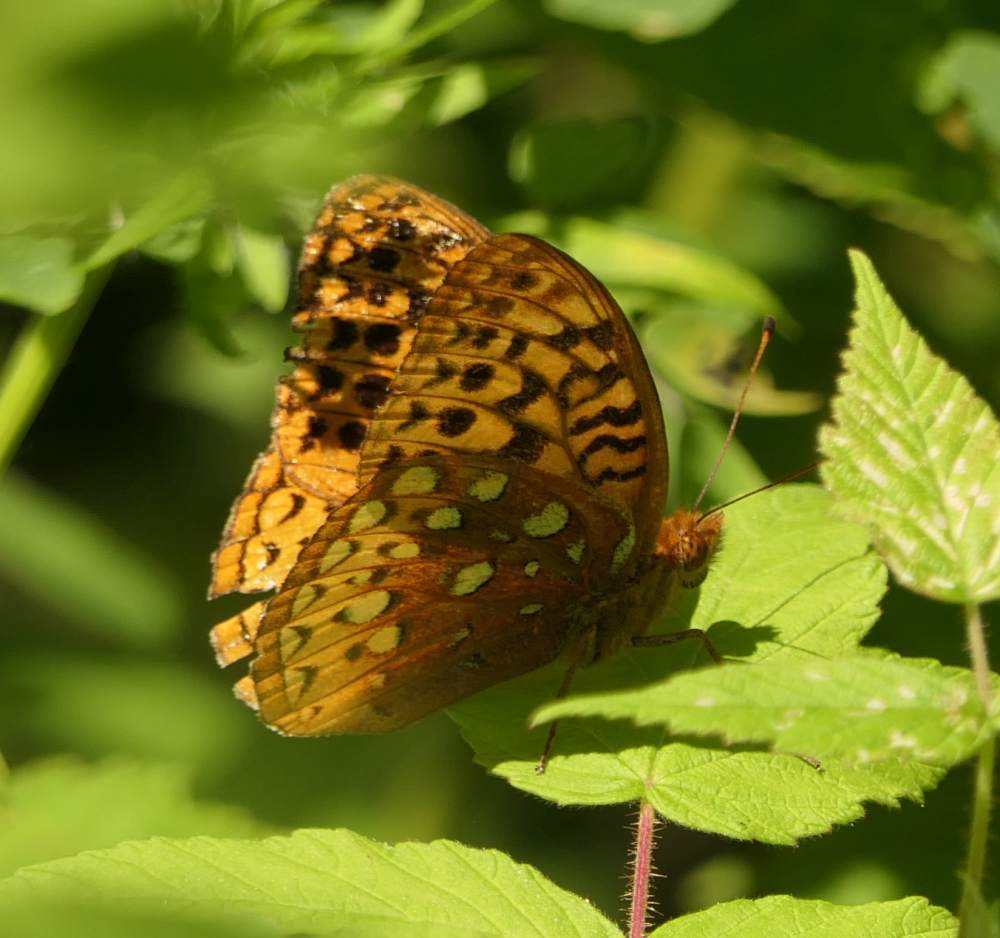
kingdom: Animalia
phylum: Arthropoda
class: Insecta
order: Lepidoptera
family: Nymphalidae
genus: Speyeria
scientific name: Speyeria cybele
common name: Great spangled fritillary
